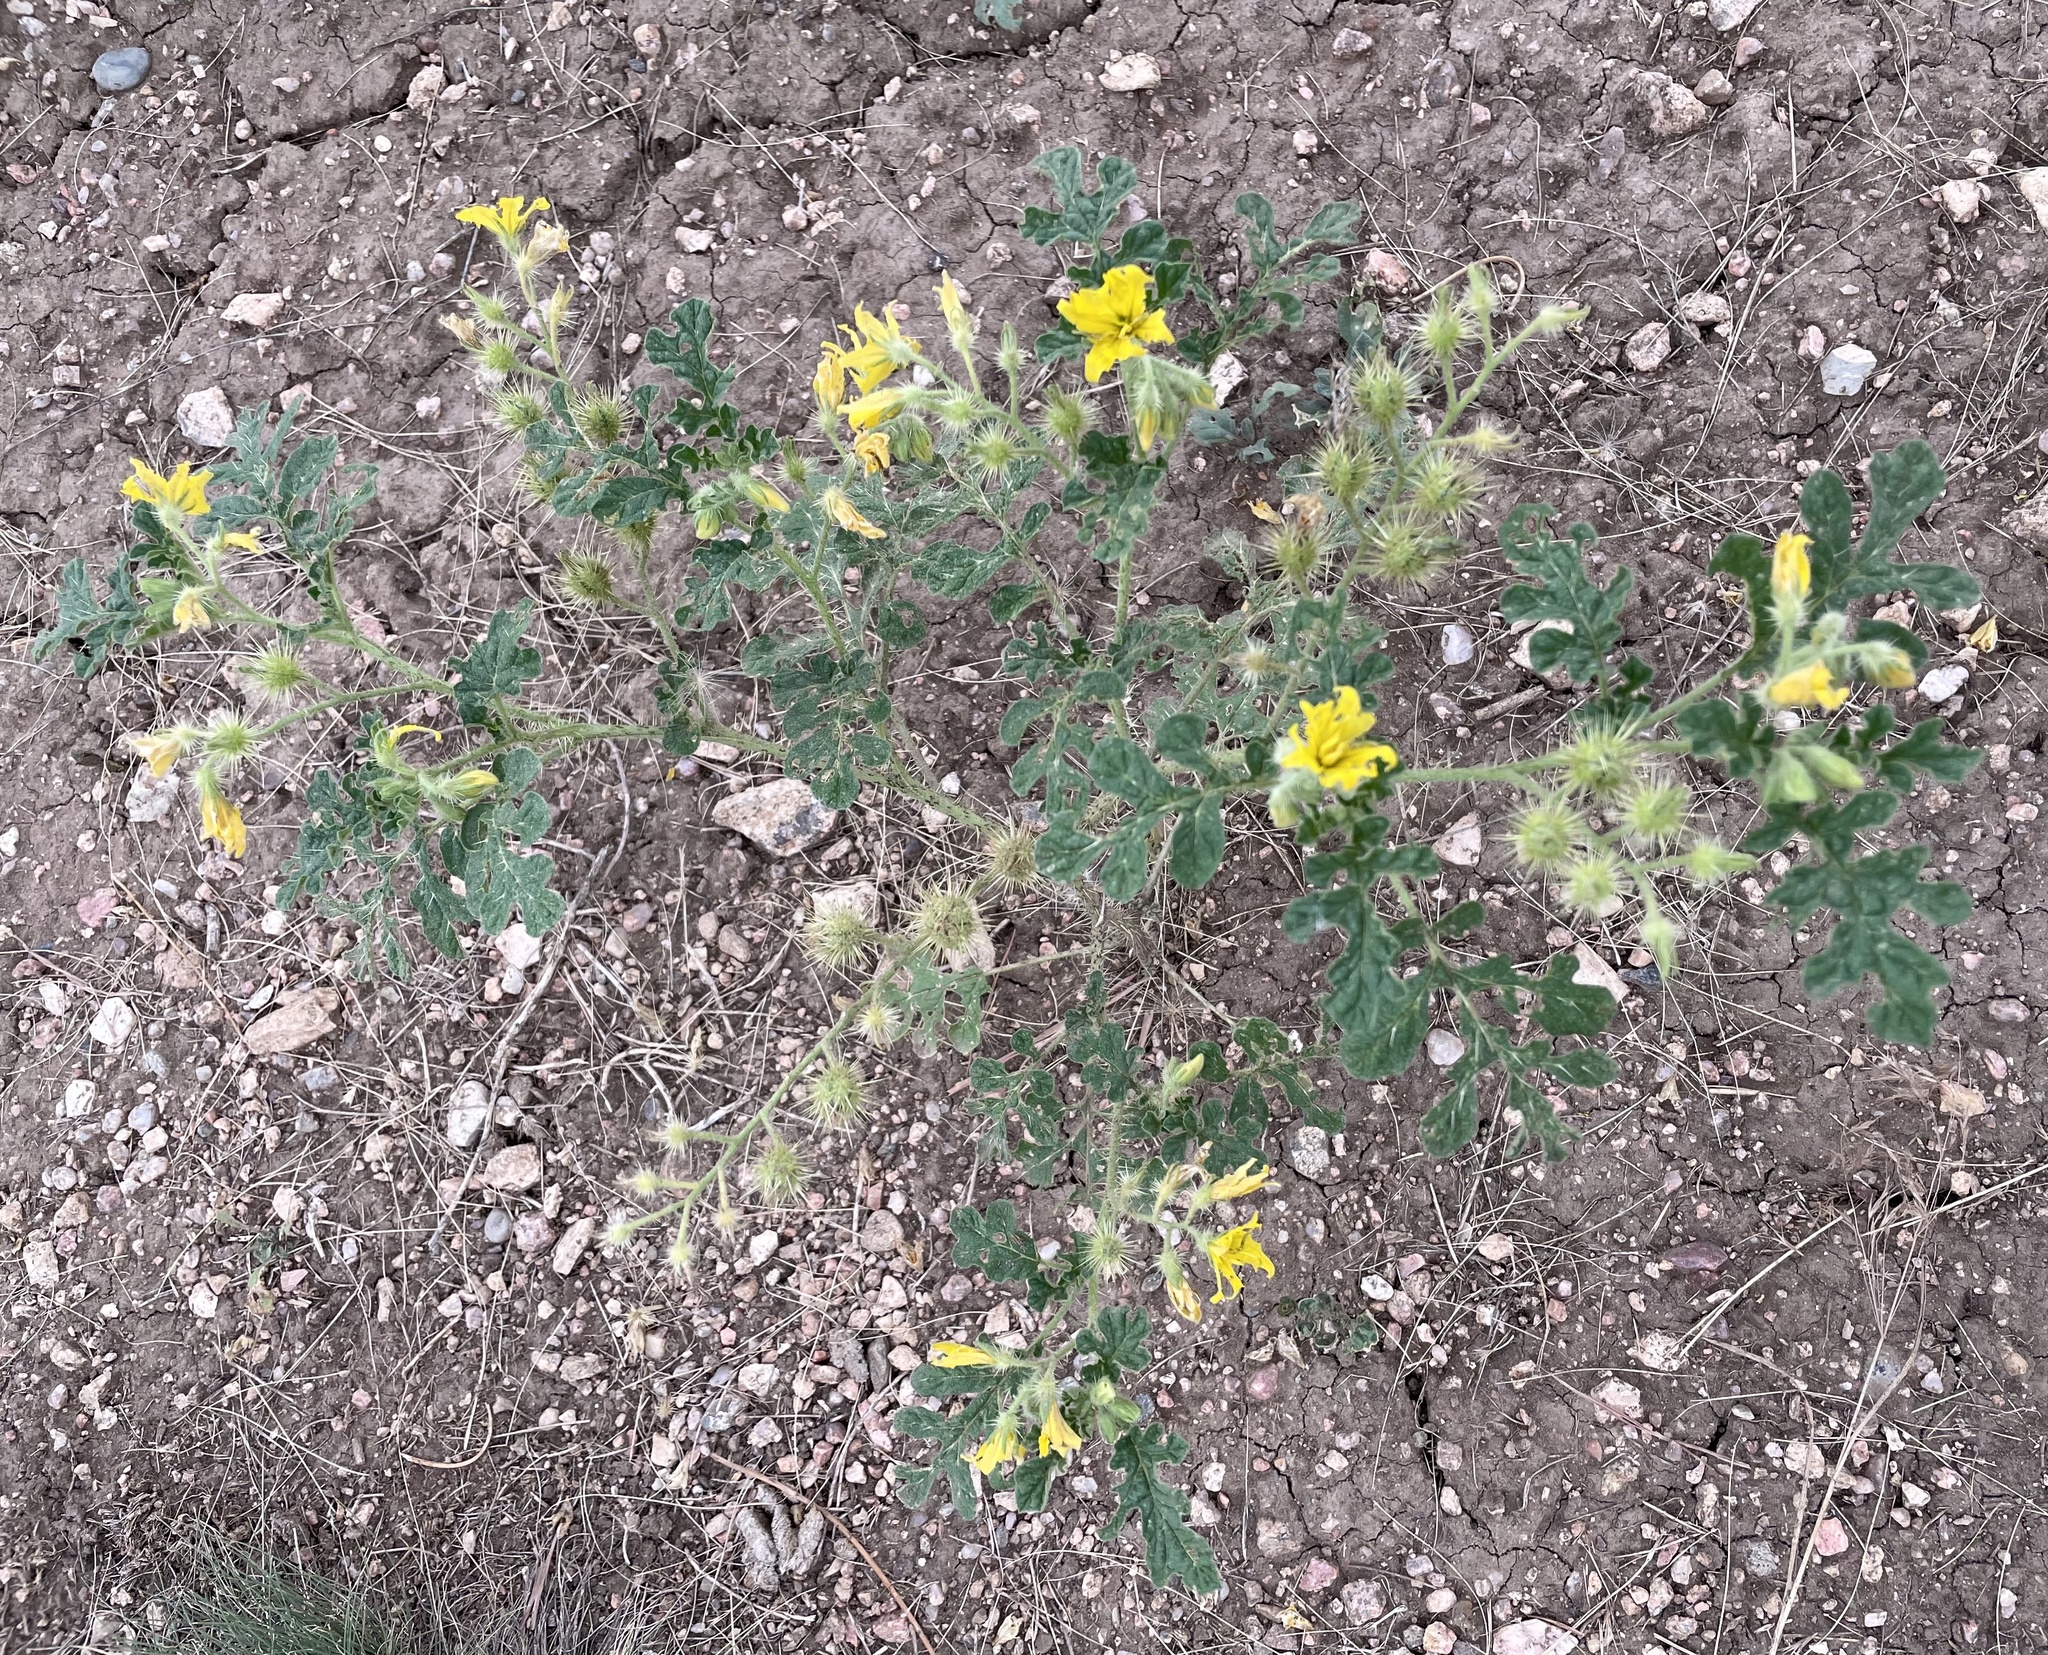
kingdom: Plantae
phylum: Tracheophyta
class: Magnoliopsida
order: Solanales
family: Solanaceae
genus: Solanum
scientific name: Solanum angustifolium
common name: Buffalobur nightshade
